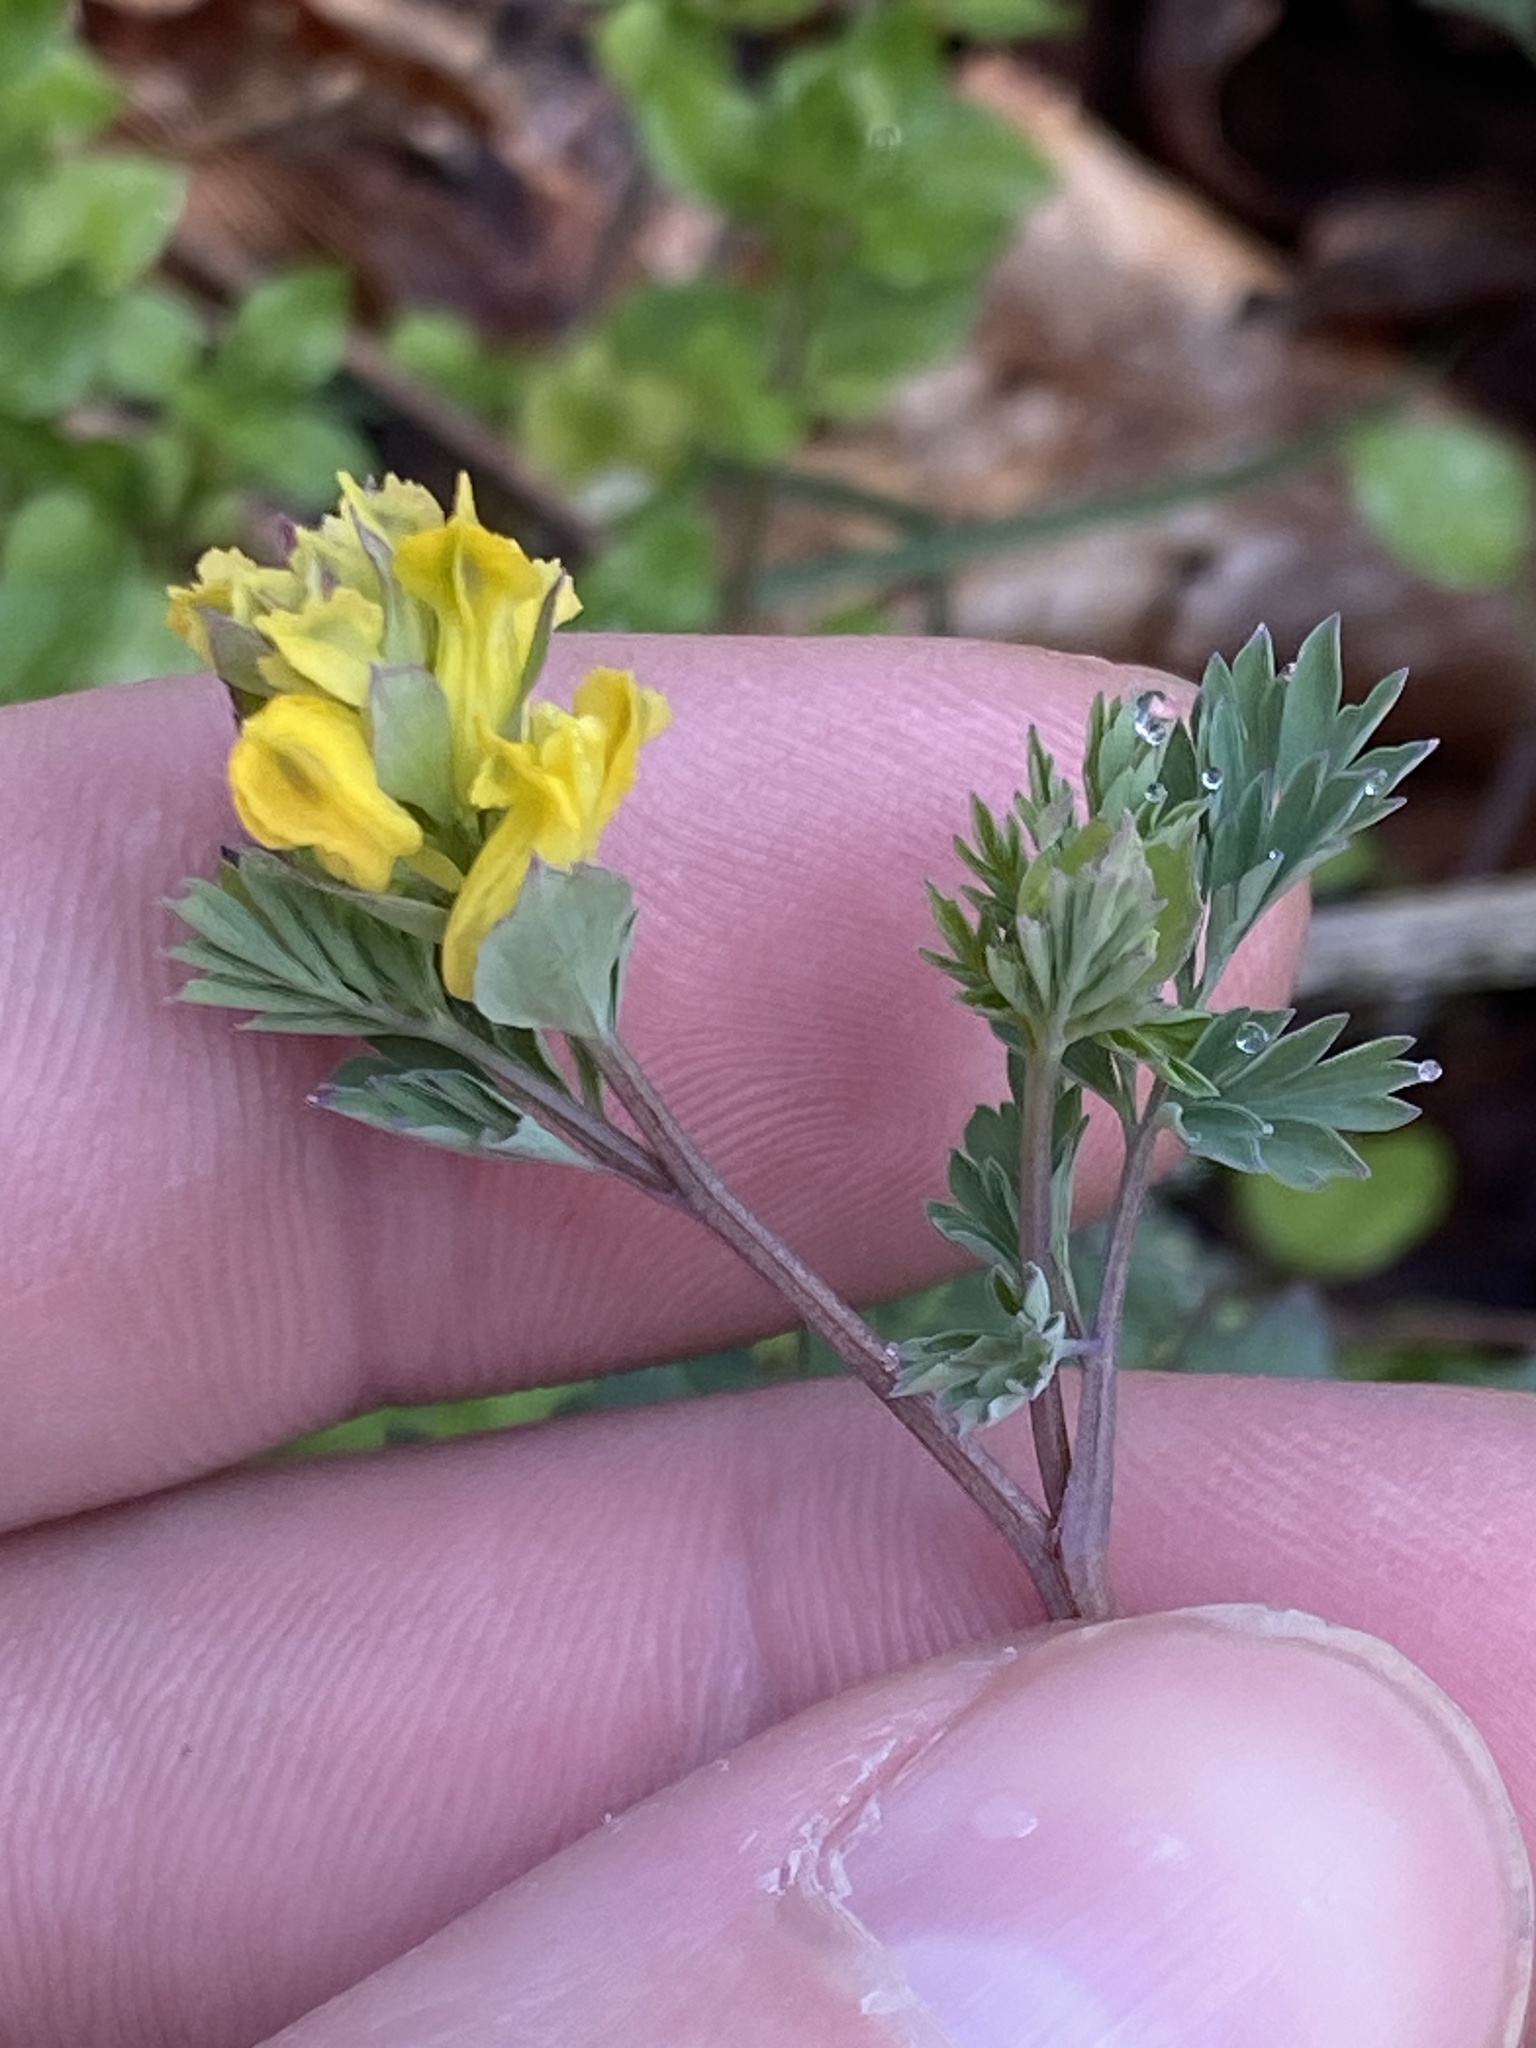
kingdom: Plantae
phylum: Tracheophyta
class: Magnoliopsida
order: Ranunculales
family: Papaveraceae
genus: Corydalis
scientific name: Corydalis flavula
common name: Yellow corydalis
